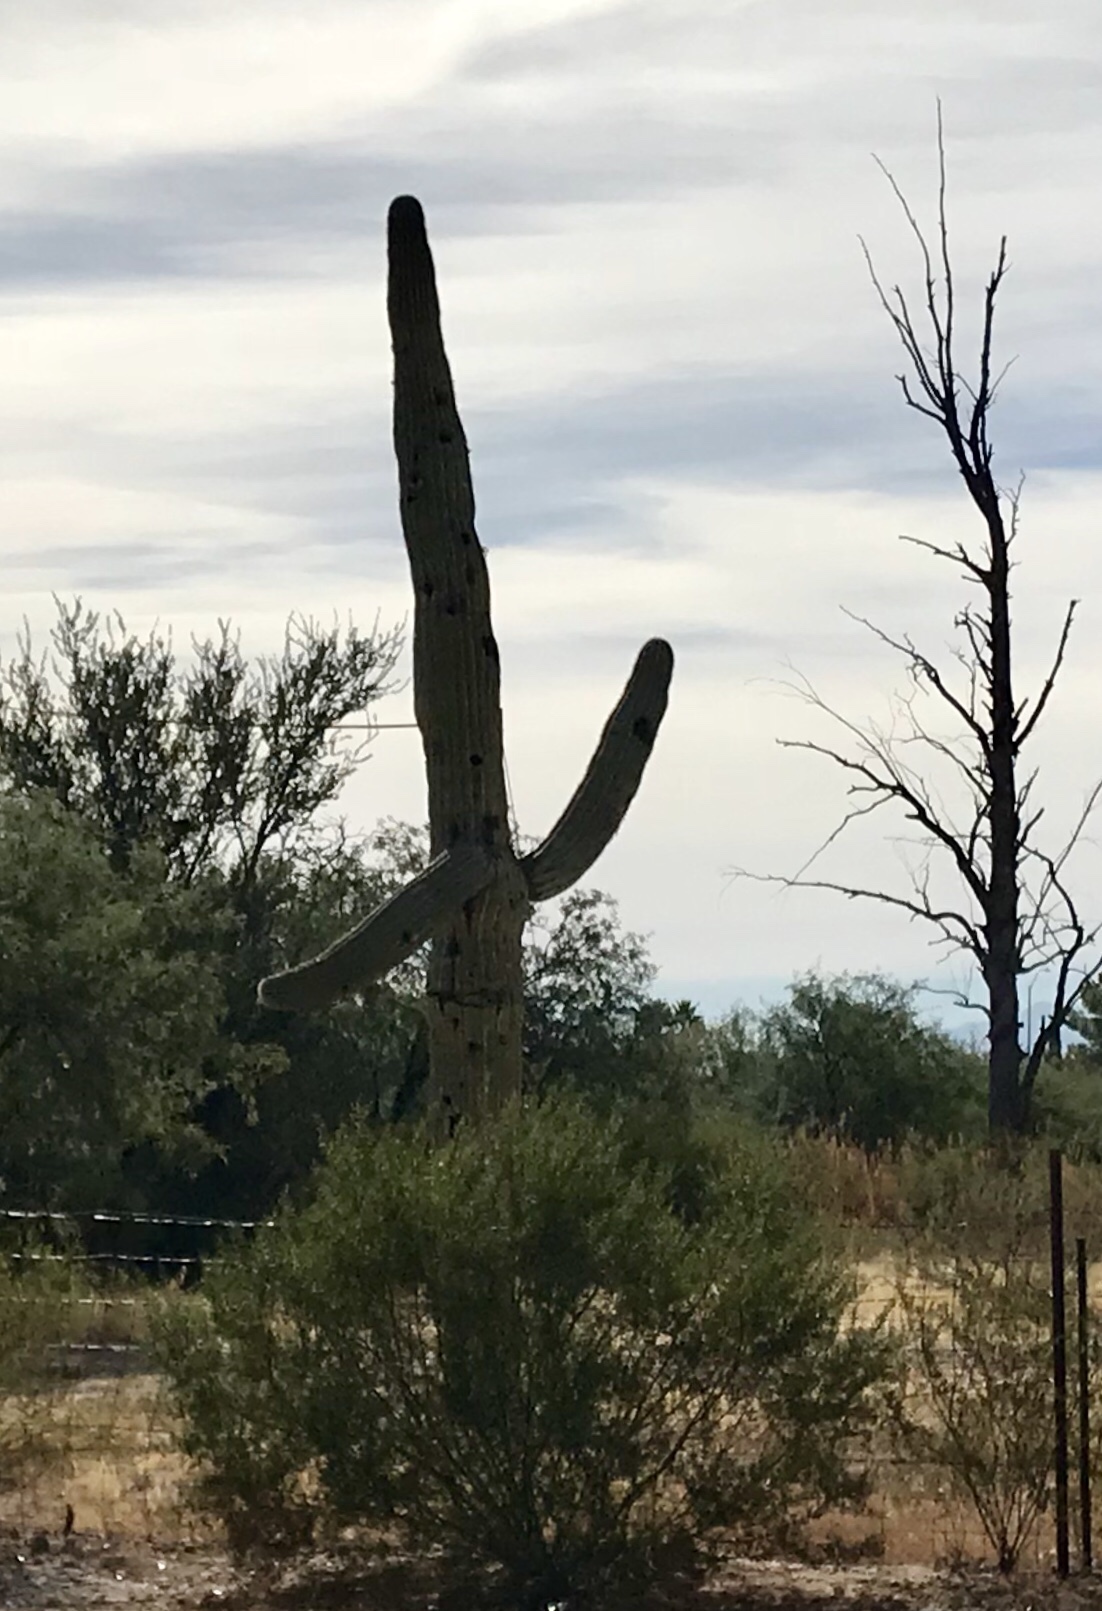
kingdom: Plantae
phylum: Tracheophyta
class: Magnoliopsida
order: Caryophyllales
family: Cactaceae
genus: Carnegiea
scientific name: Carnegiea gigantea
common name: Saguaro
